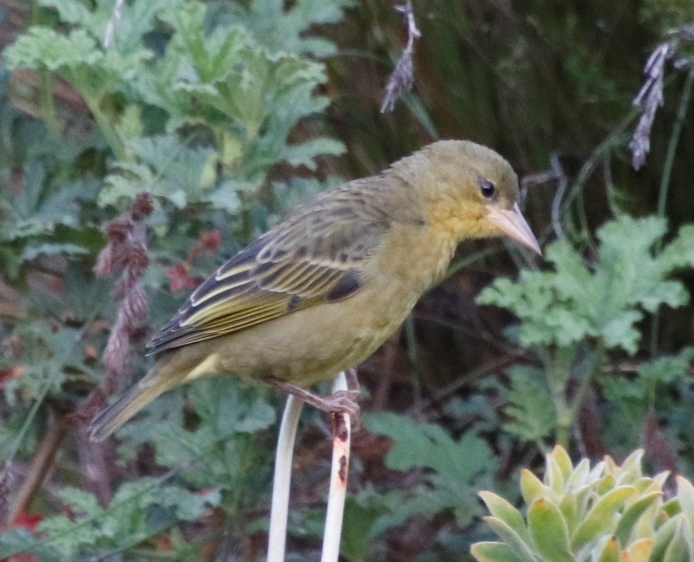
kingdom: Animalia
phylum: Chordata
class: Aves
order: Passeriformes
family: Ploceidae
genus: Ploceus
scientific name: Ploceus capensis
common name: Cape weaver
